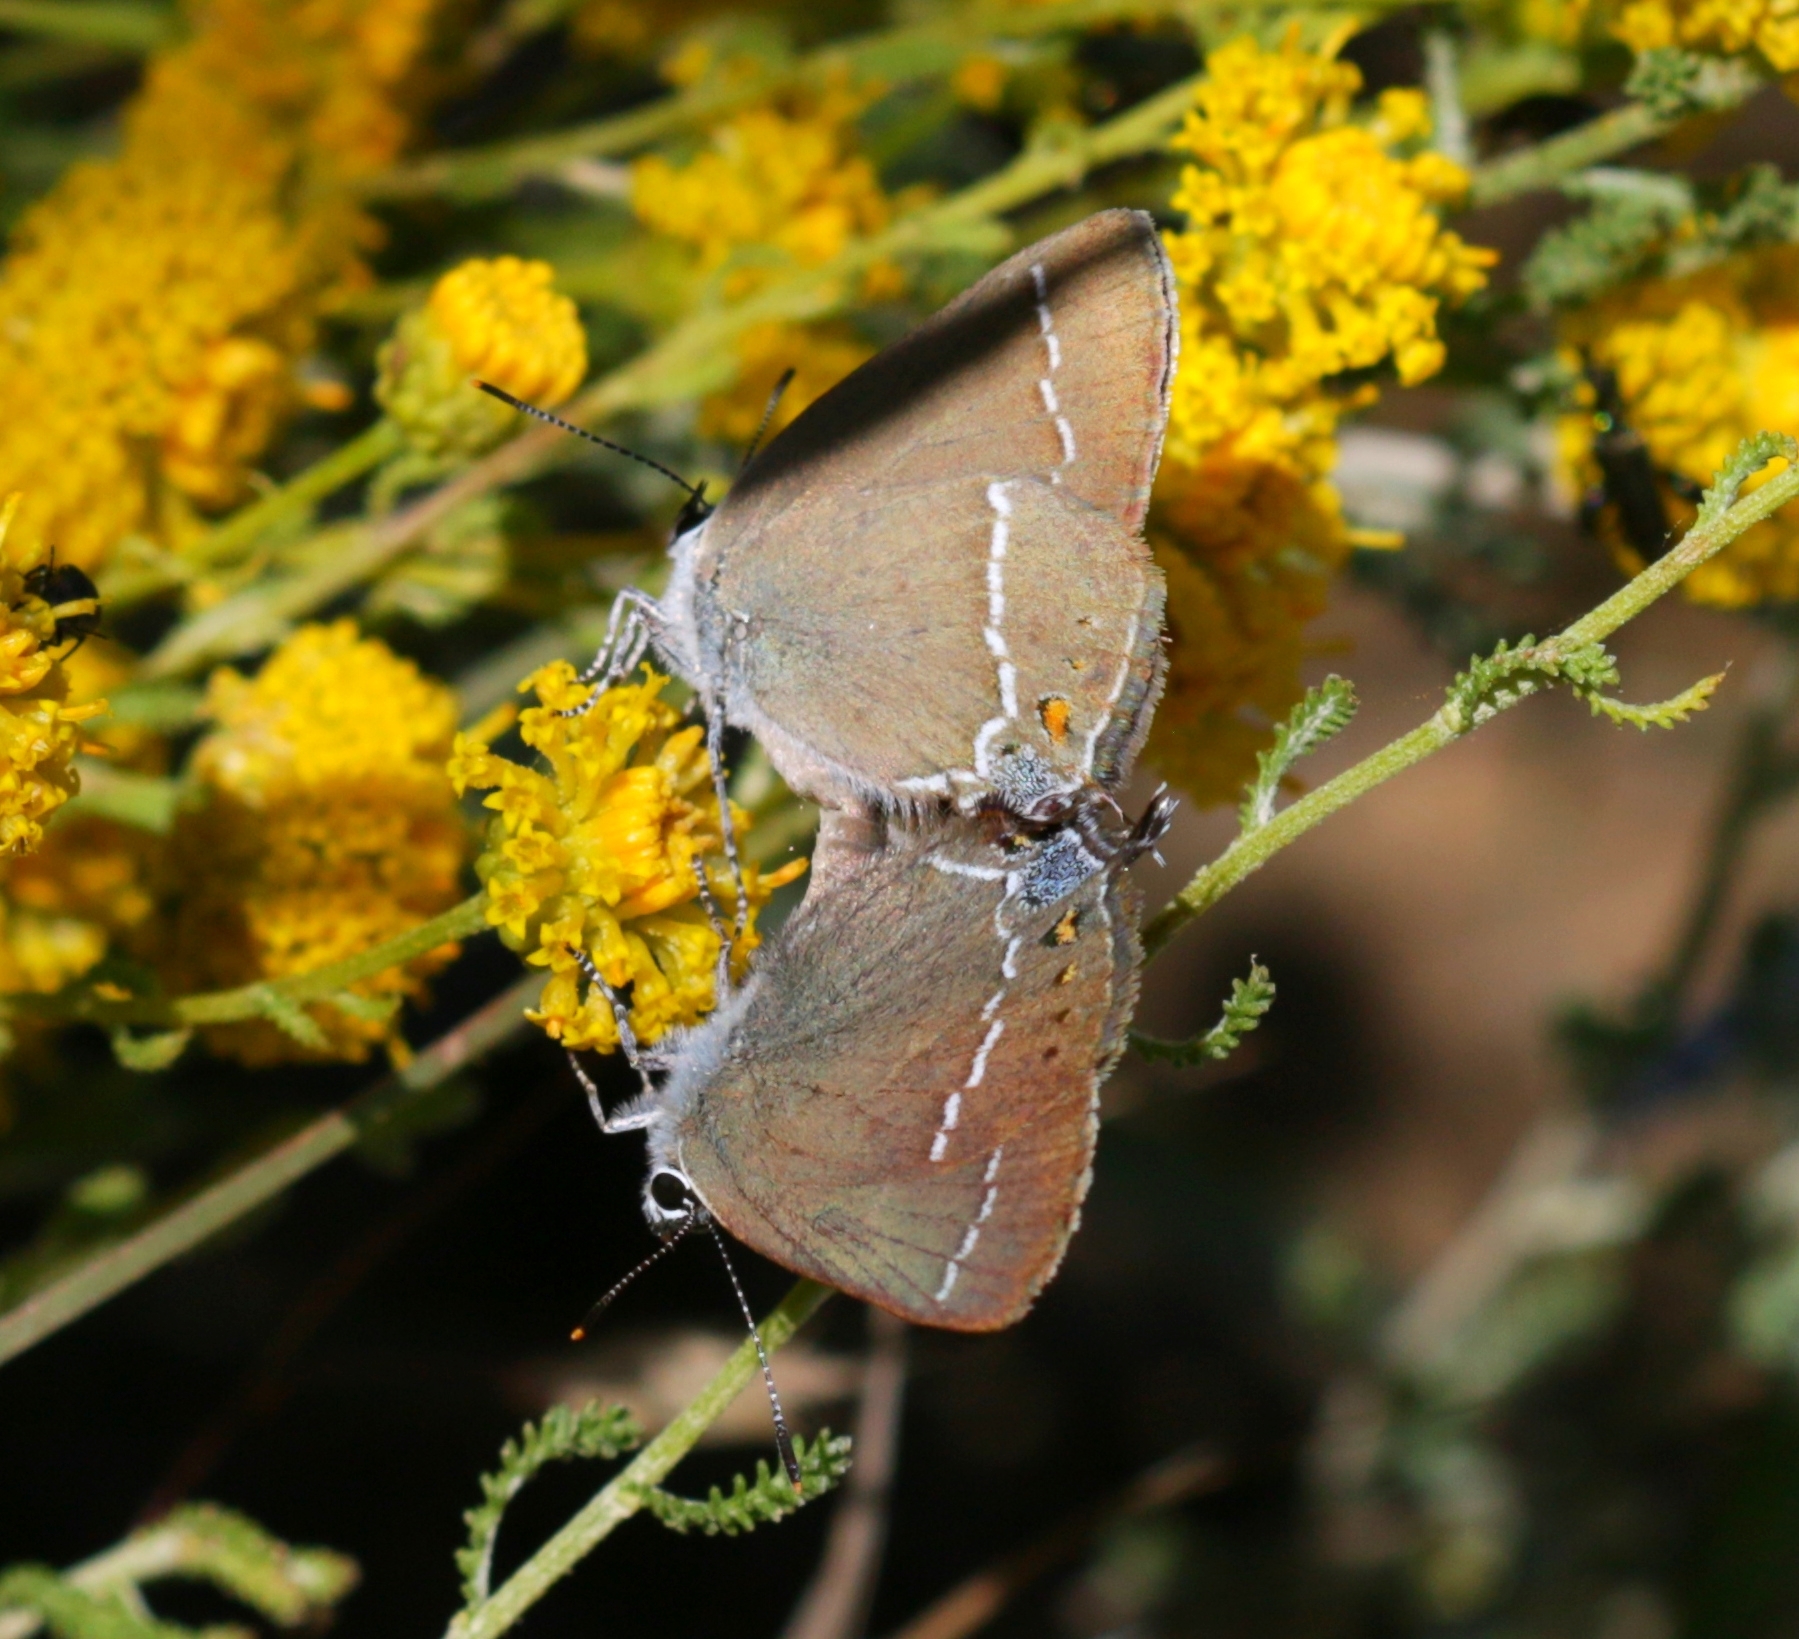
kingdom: Animalia
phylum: Arthropoda
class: Insecta
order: Lepidoptera
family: Lycaenidae
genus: Tuttiola
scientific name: Tuttiola spini
